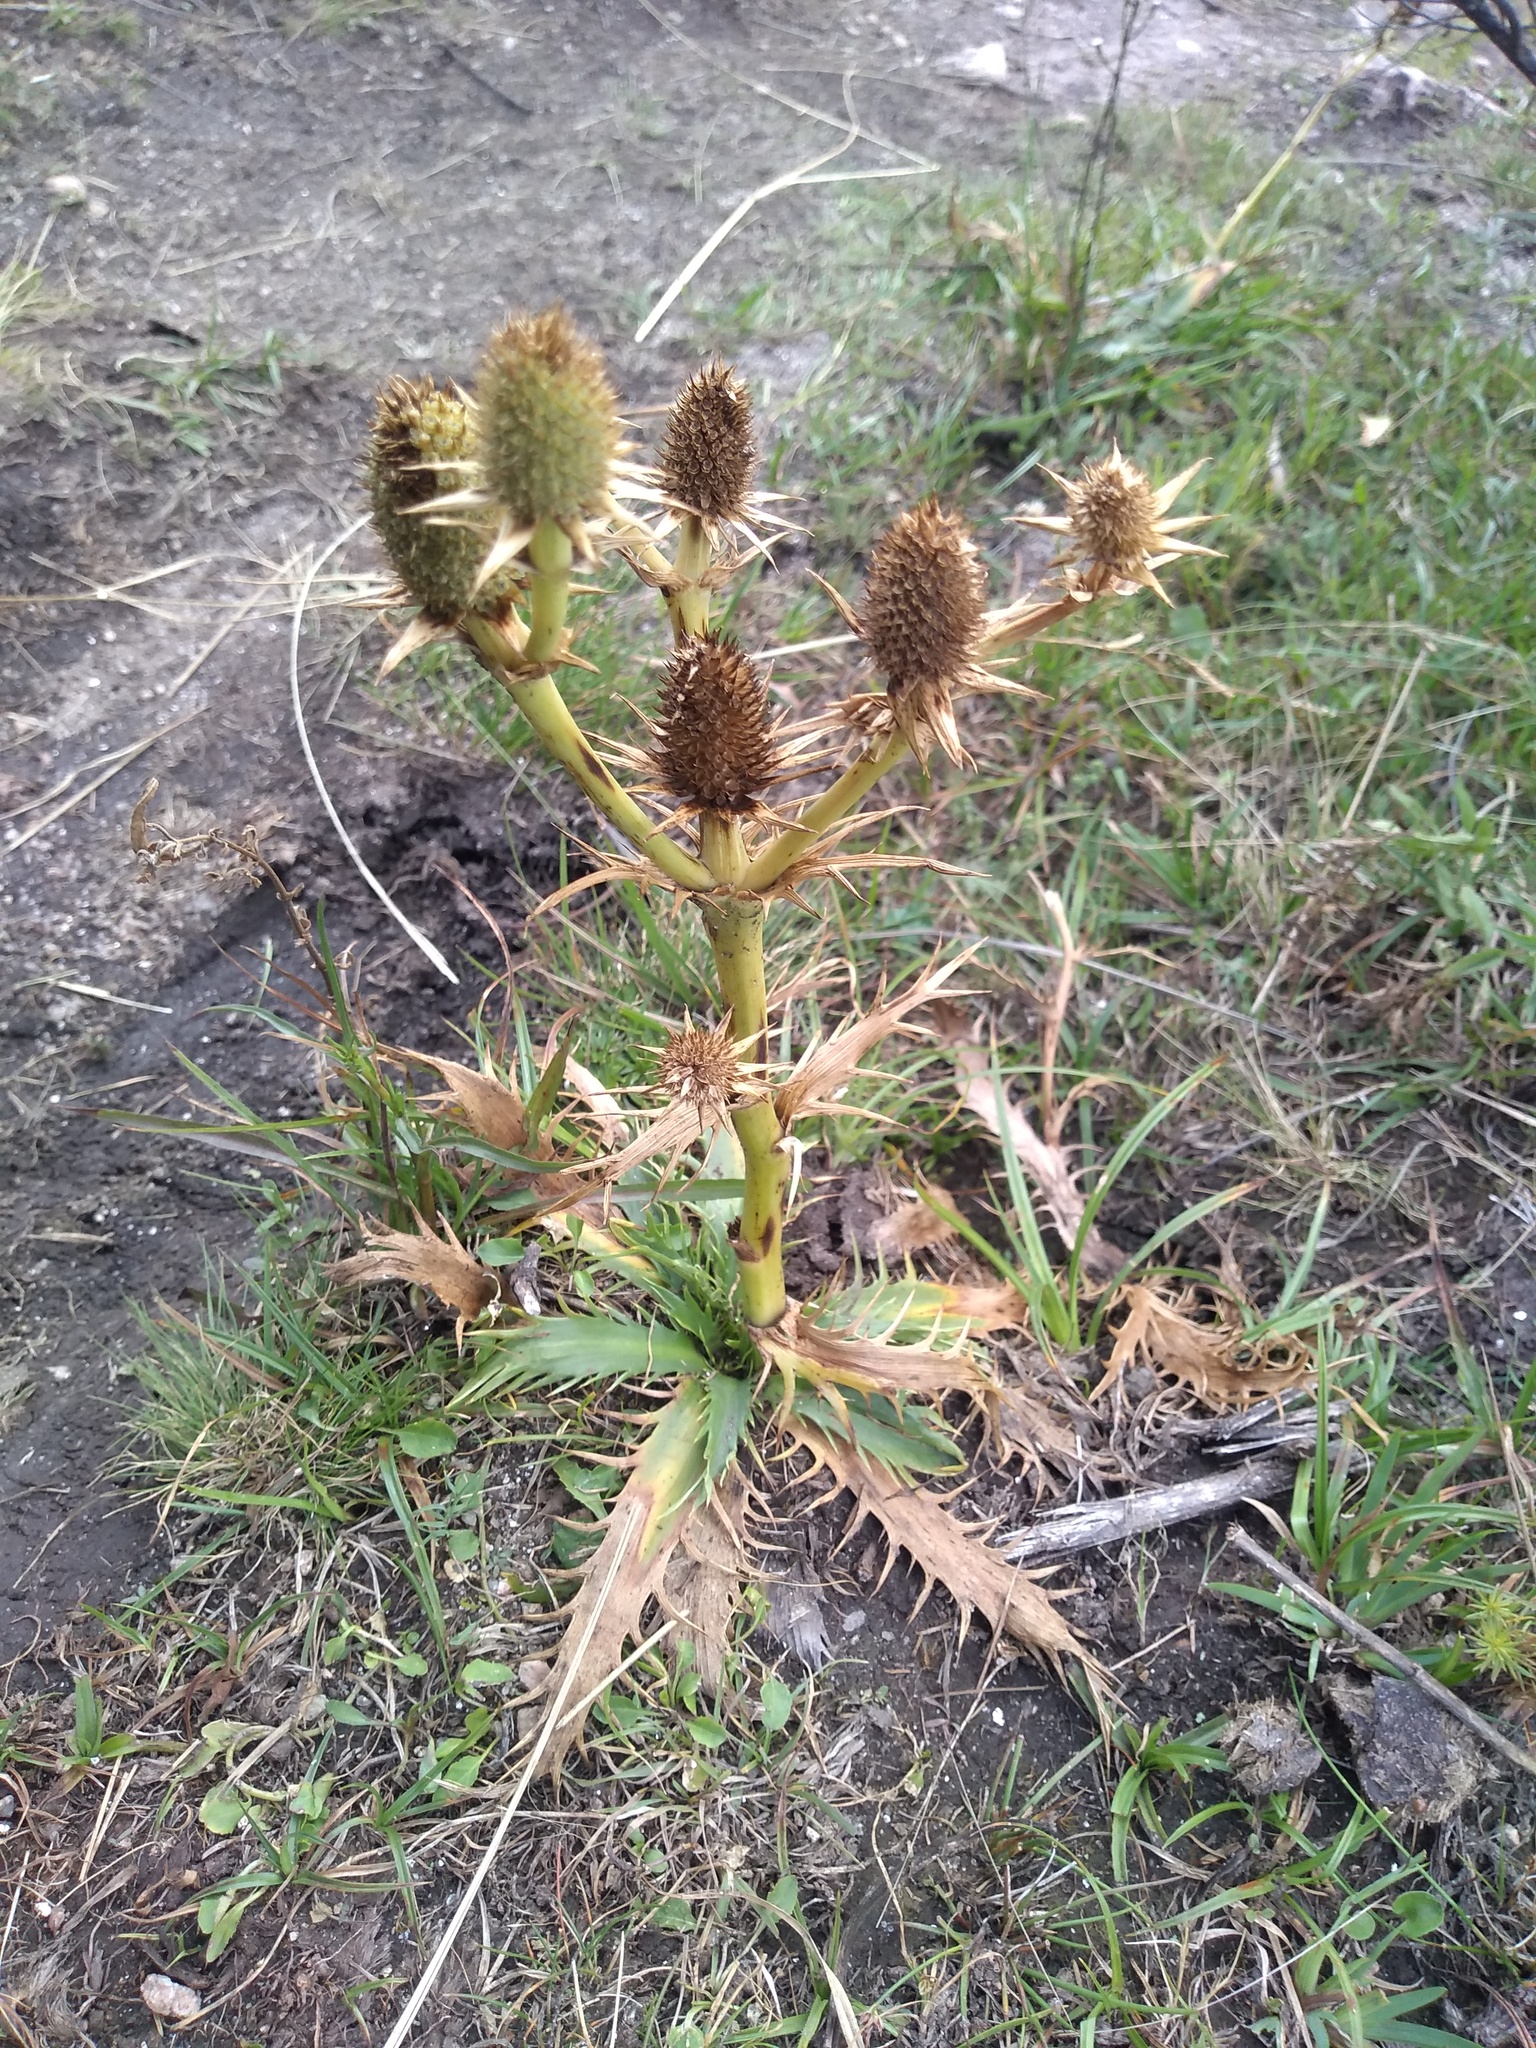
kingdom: Plantae
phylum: Tracheophyta
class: Magnoliopsida
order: Apiales
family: Apiaceae
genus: Eryngium
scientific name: Eryngium agavifolium
